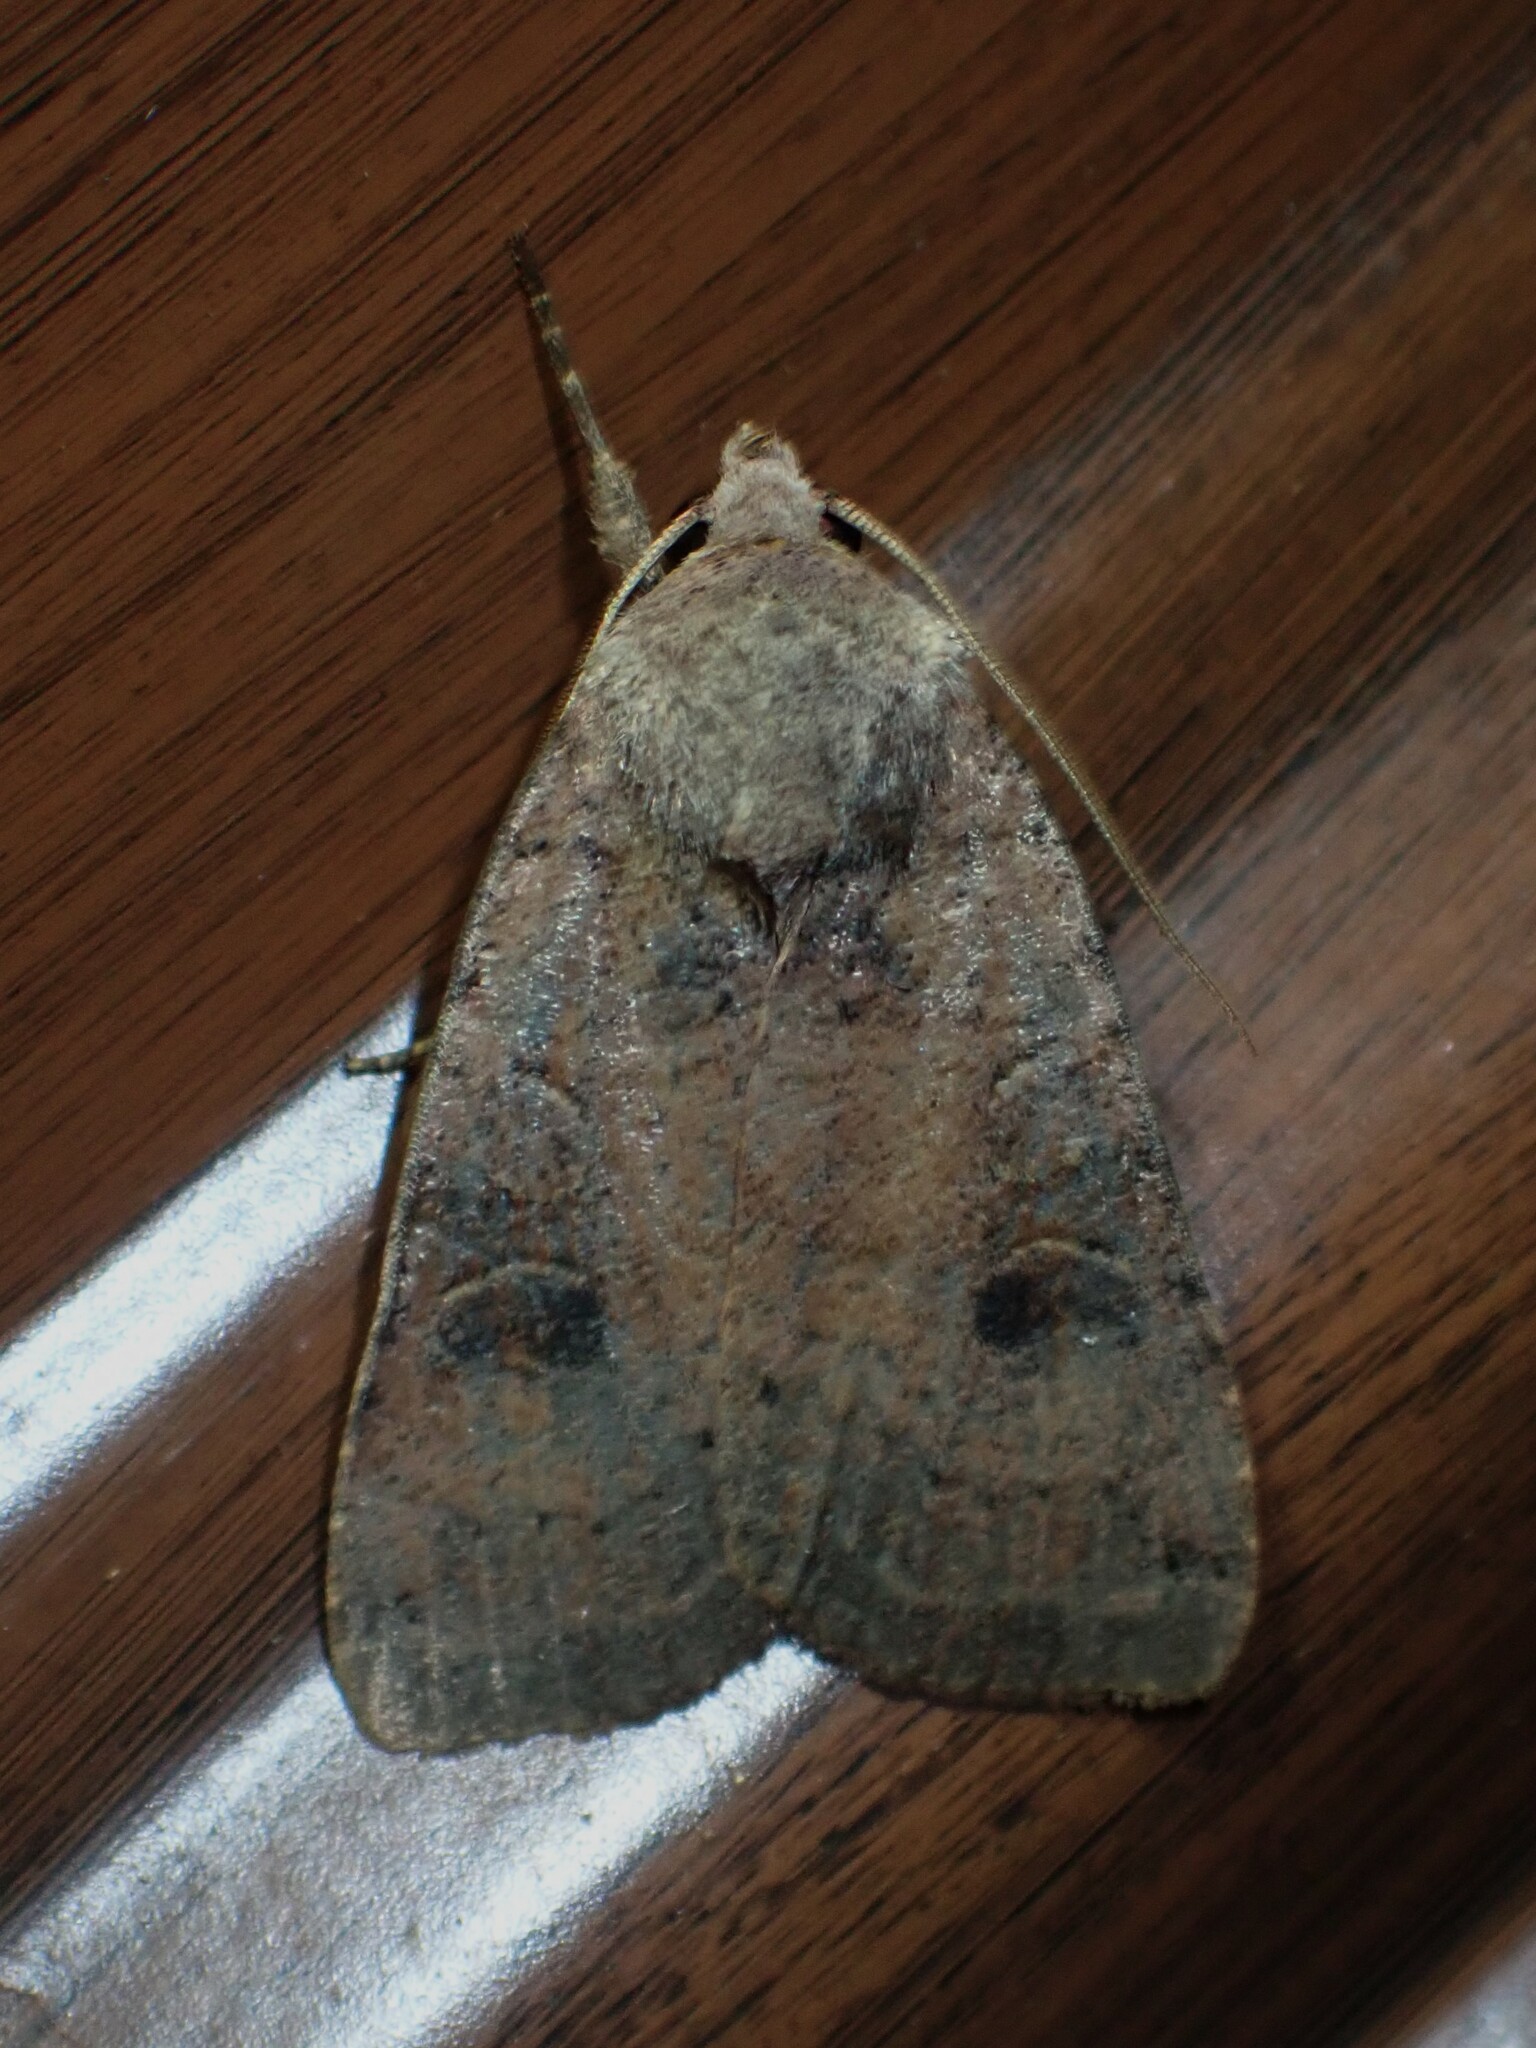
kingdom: Animalia
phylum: Arthropoda
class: Insecta
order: Lepidoptera
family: Noctuidae
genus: Xestia
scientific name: Xestia smithii
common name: Smith's dart
